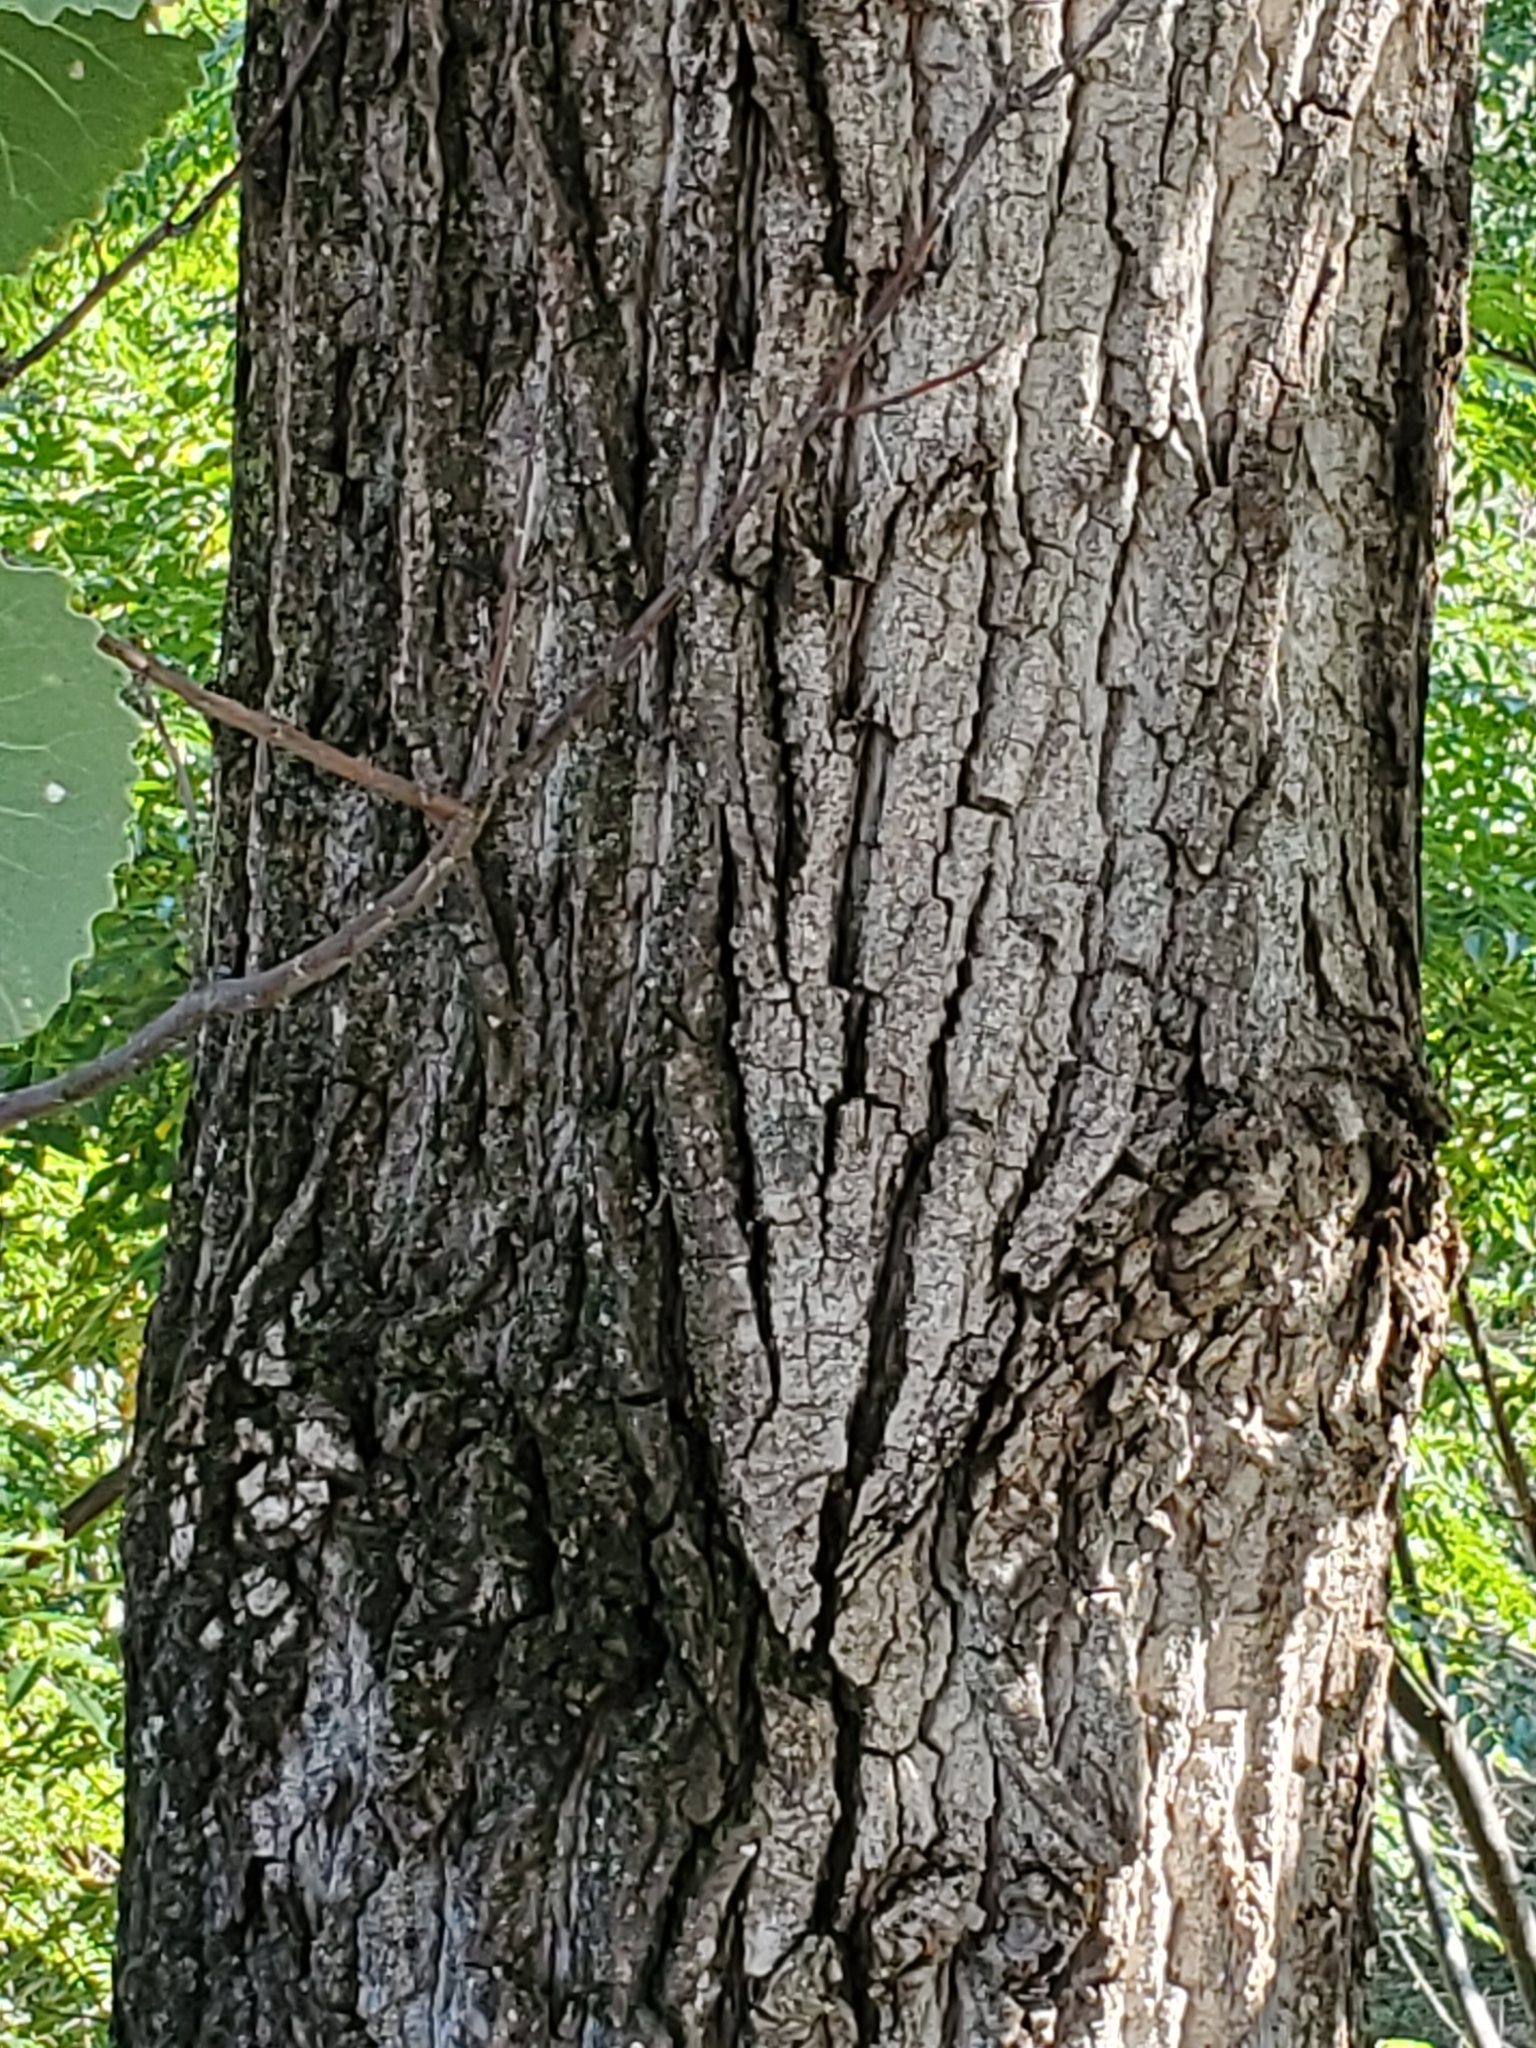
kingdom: Plantae
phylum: Tracheophyta
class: Magnoliopsida
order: Malpighiales
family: Salicaceae
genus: Populus
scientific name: Populus deltoides
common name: Eastern cottonwood
